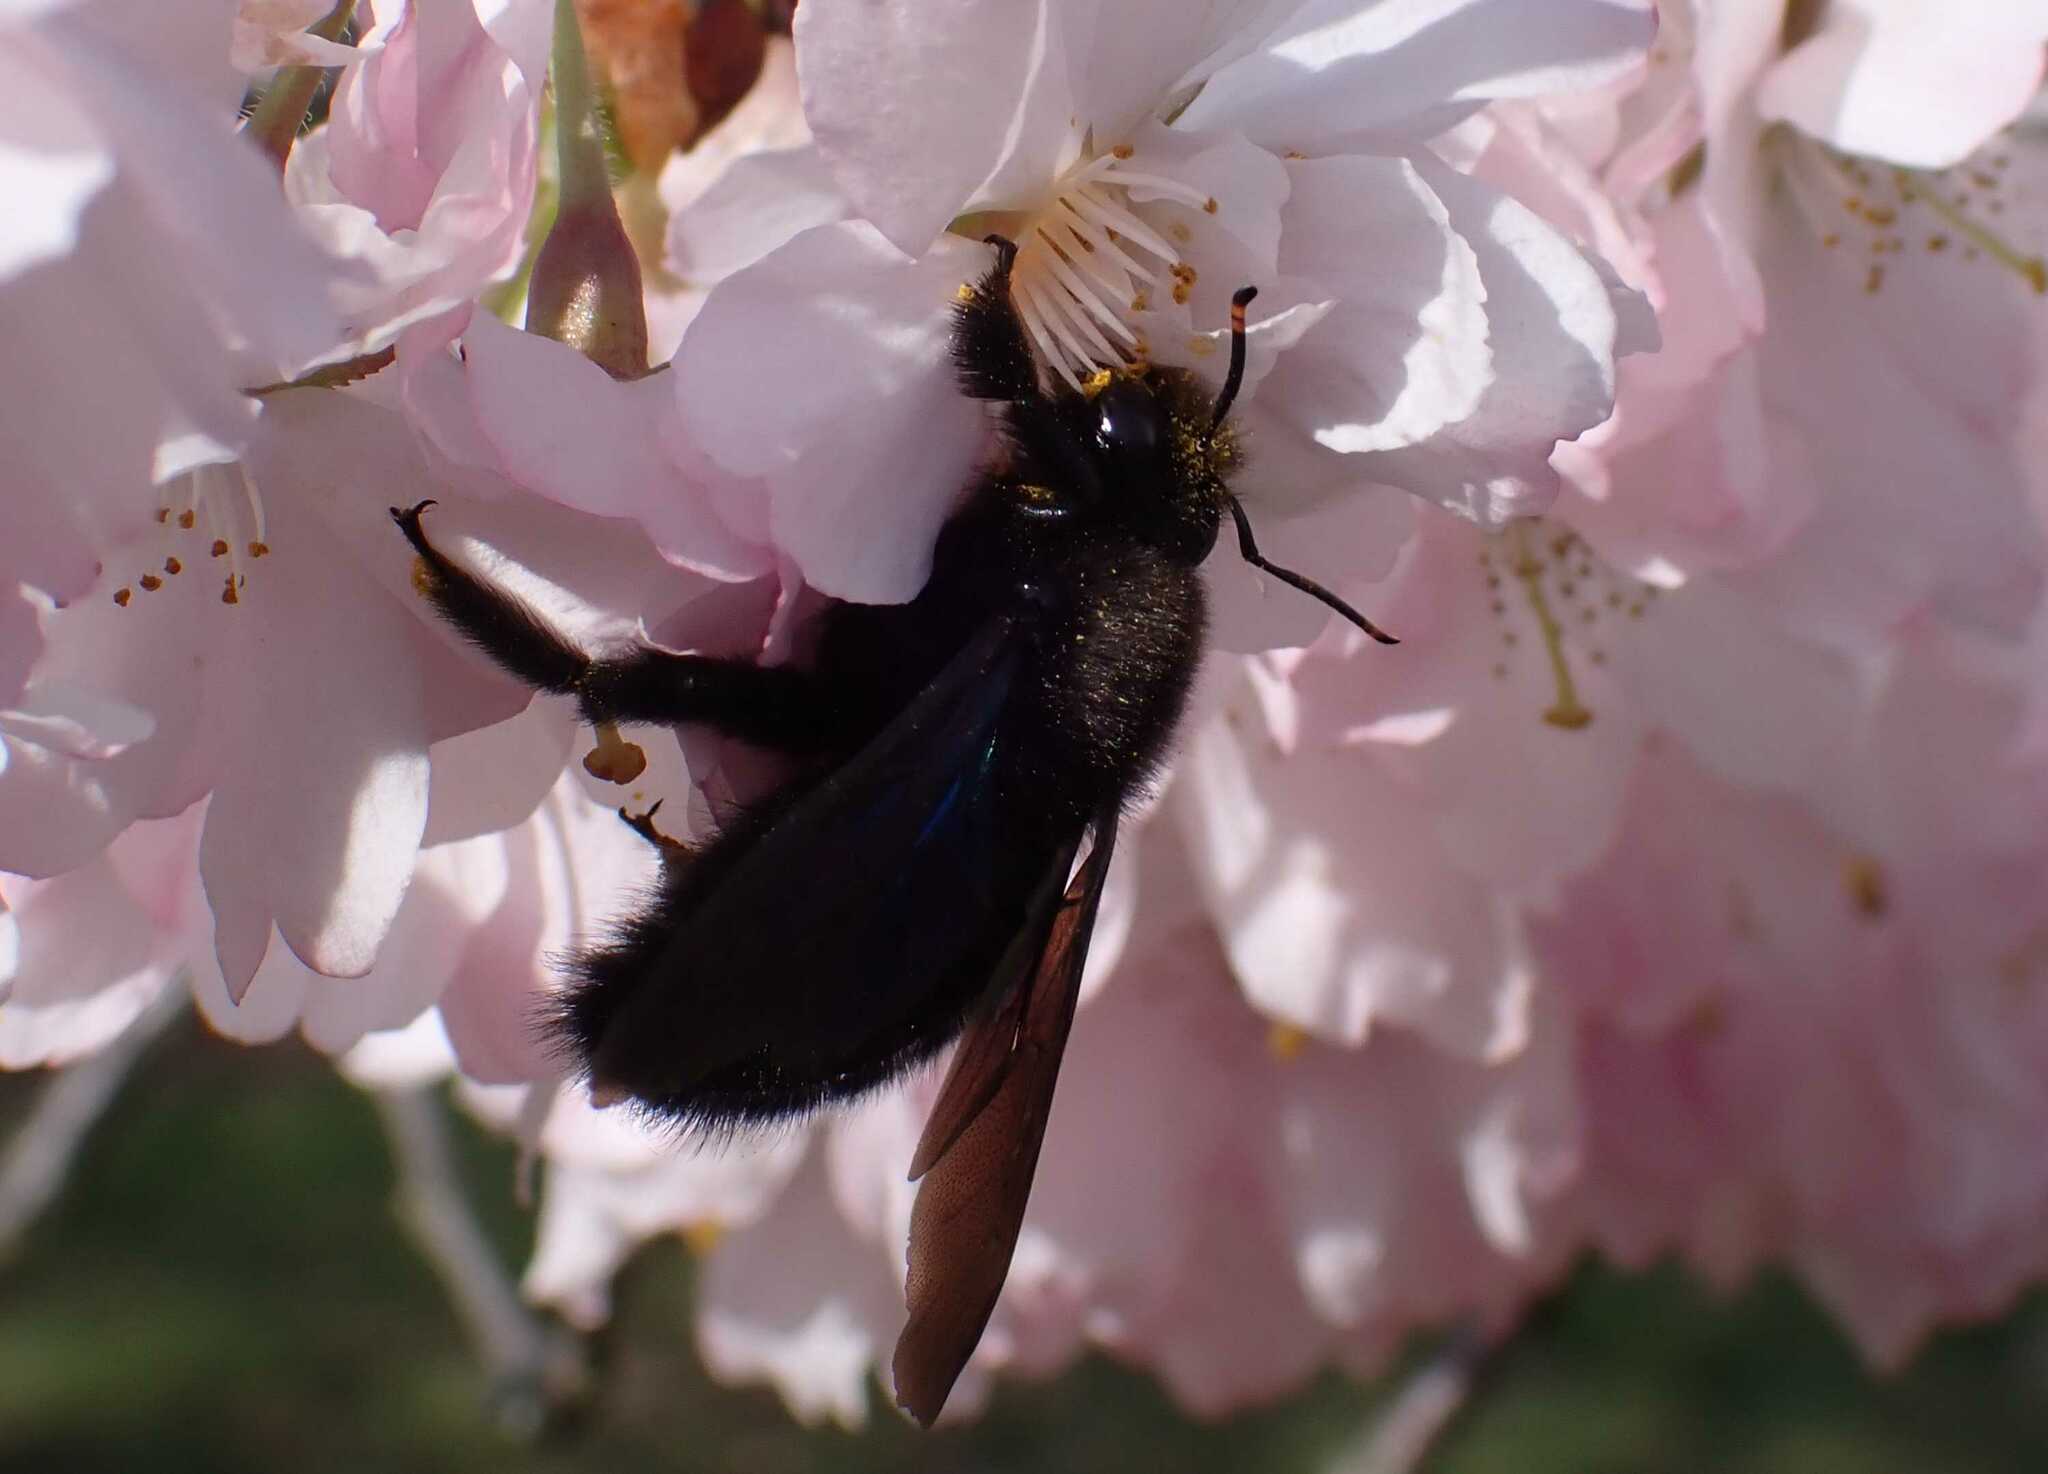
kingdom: Animalia
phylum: Arthropoda
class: Insecta
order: Hymenoptera
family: Apidae
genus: Xylocopa
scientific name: Xylocopa violacea
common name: Violet carpenter bee
